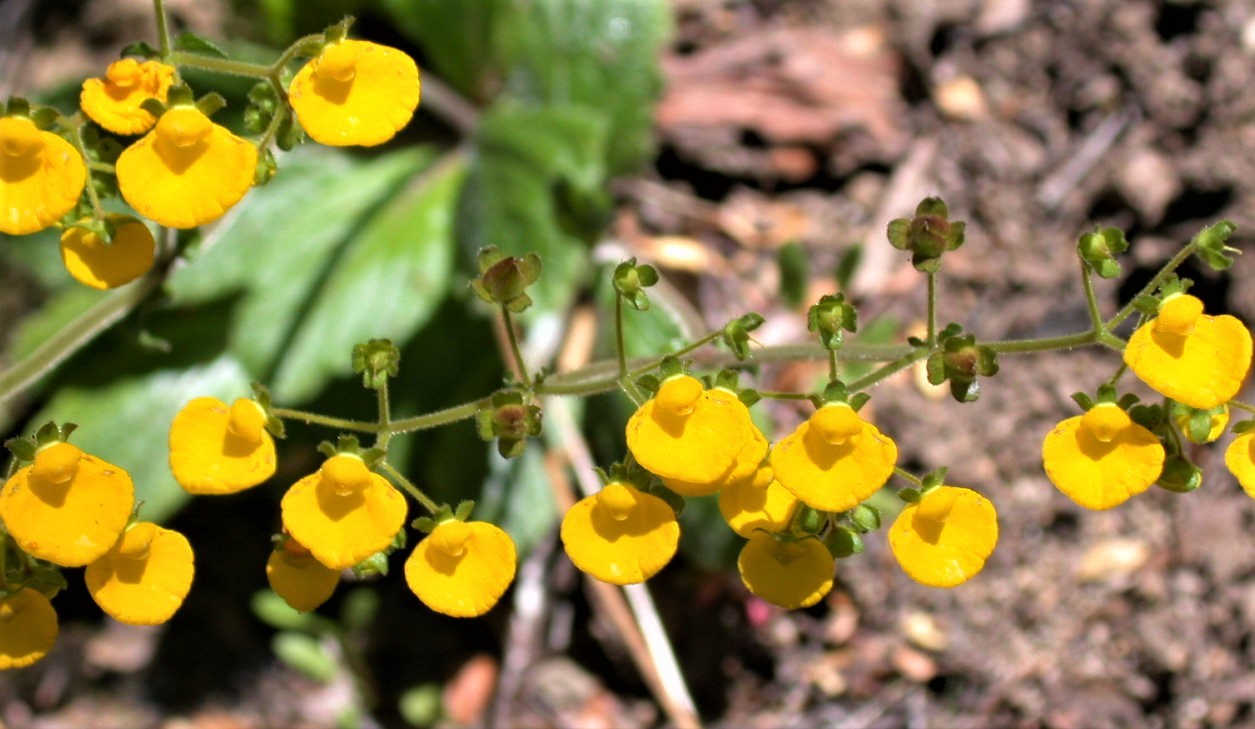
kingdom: Plantae
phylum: Tracheophyta
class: Magnoliopsida
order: Lamiales
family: Calceolariaceae
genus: Calceolaria
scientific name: Calceolaria valdiviana
